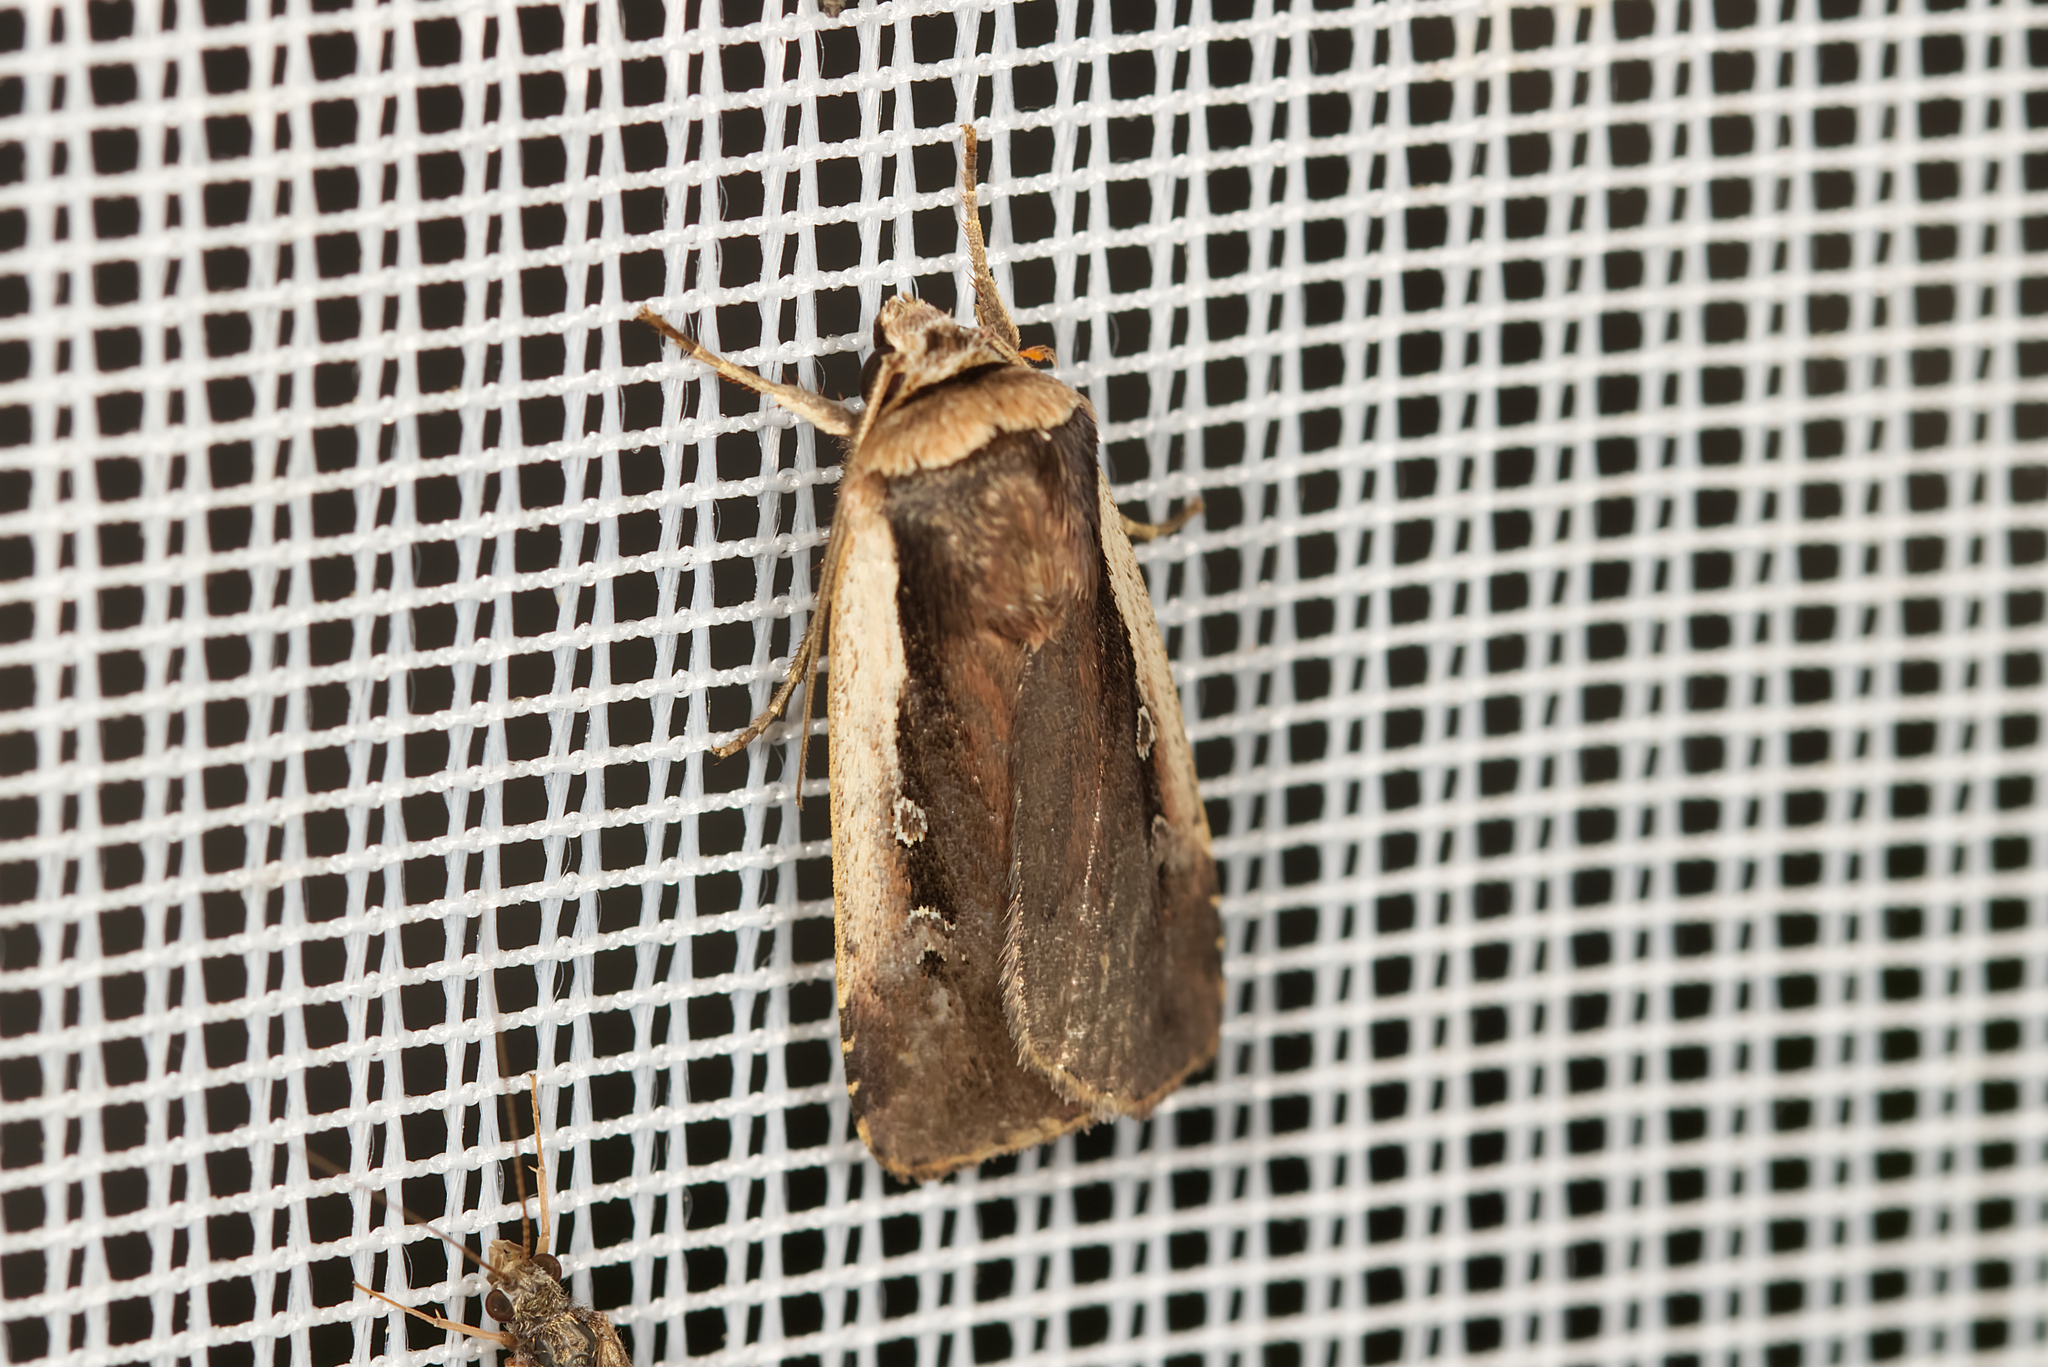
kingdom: Animalia
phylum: Arthropoda
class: Insecta
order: Lepidoptera
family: Noctuidae
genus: Ochropleura
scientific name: Ochropleura plecta
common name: Flame shoulder
